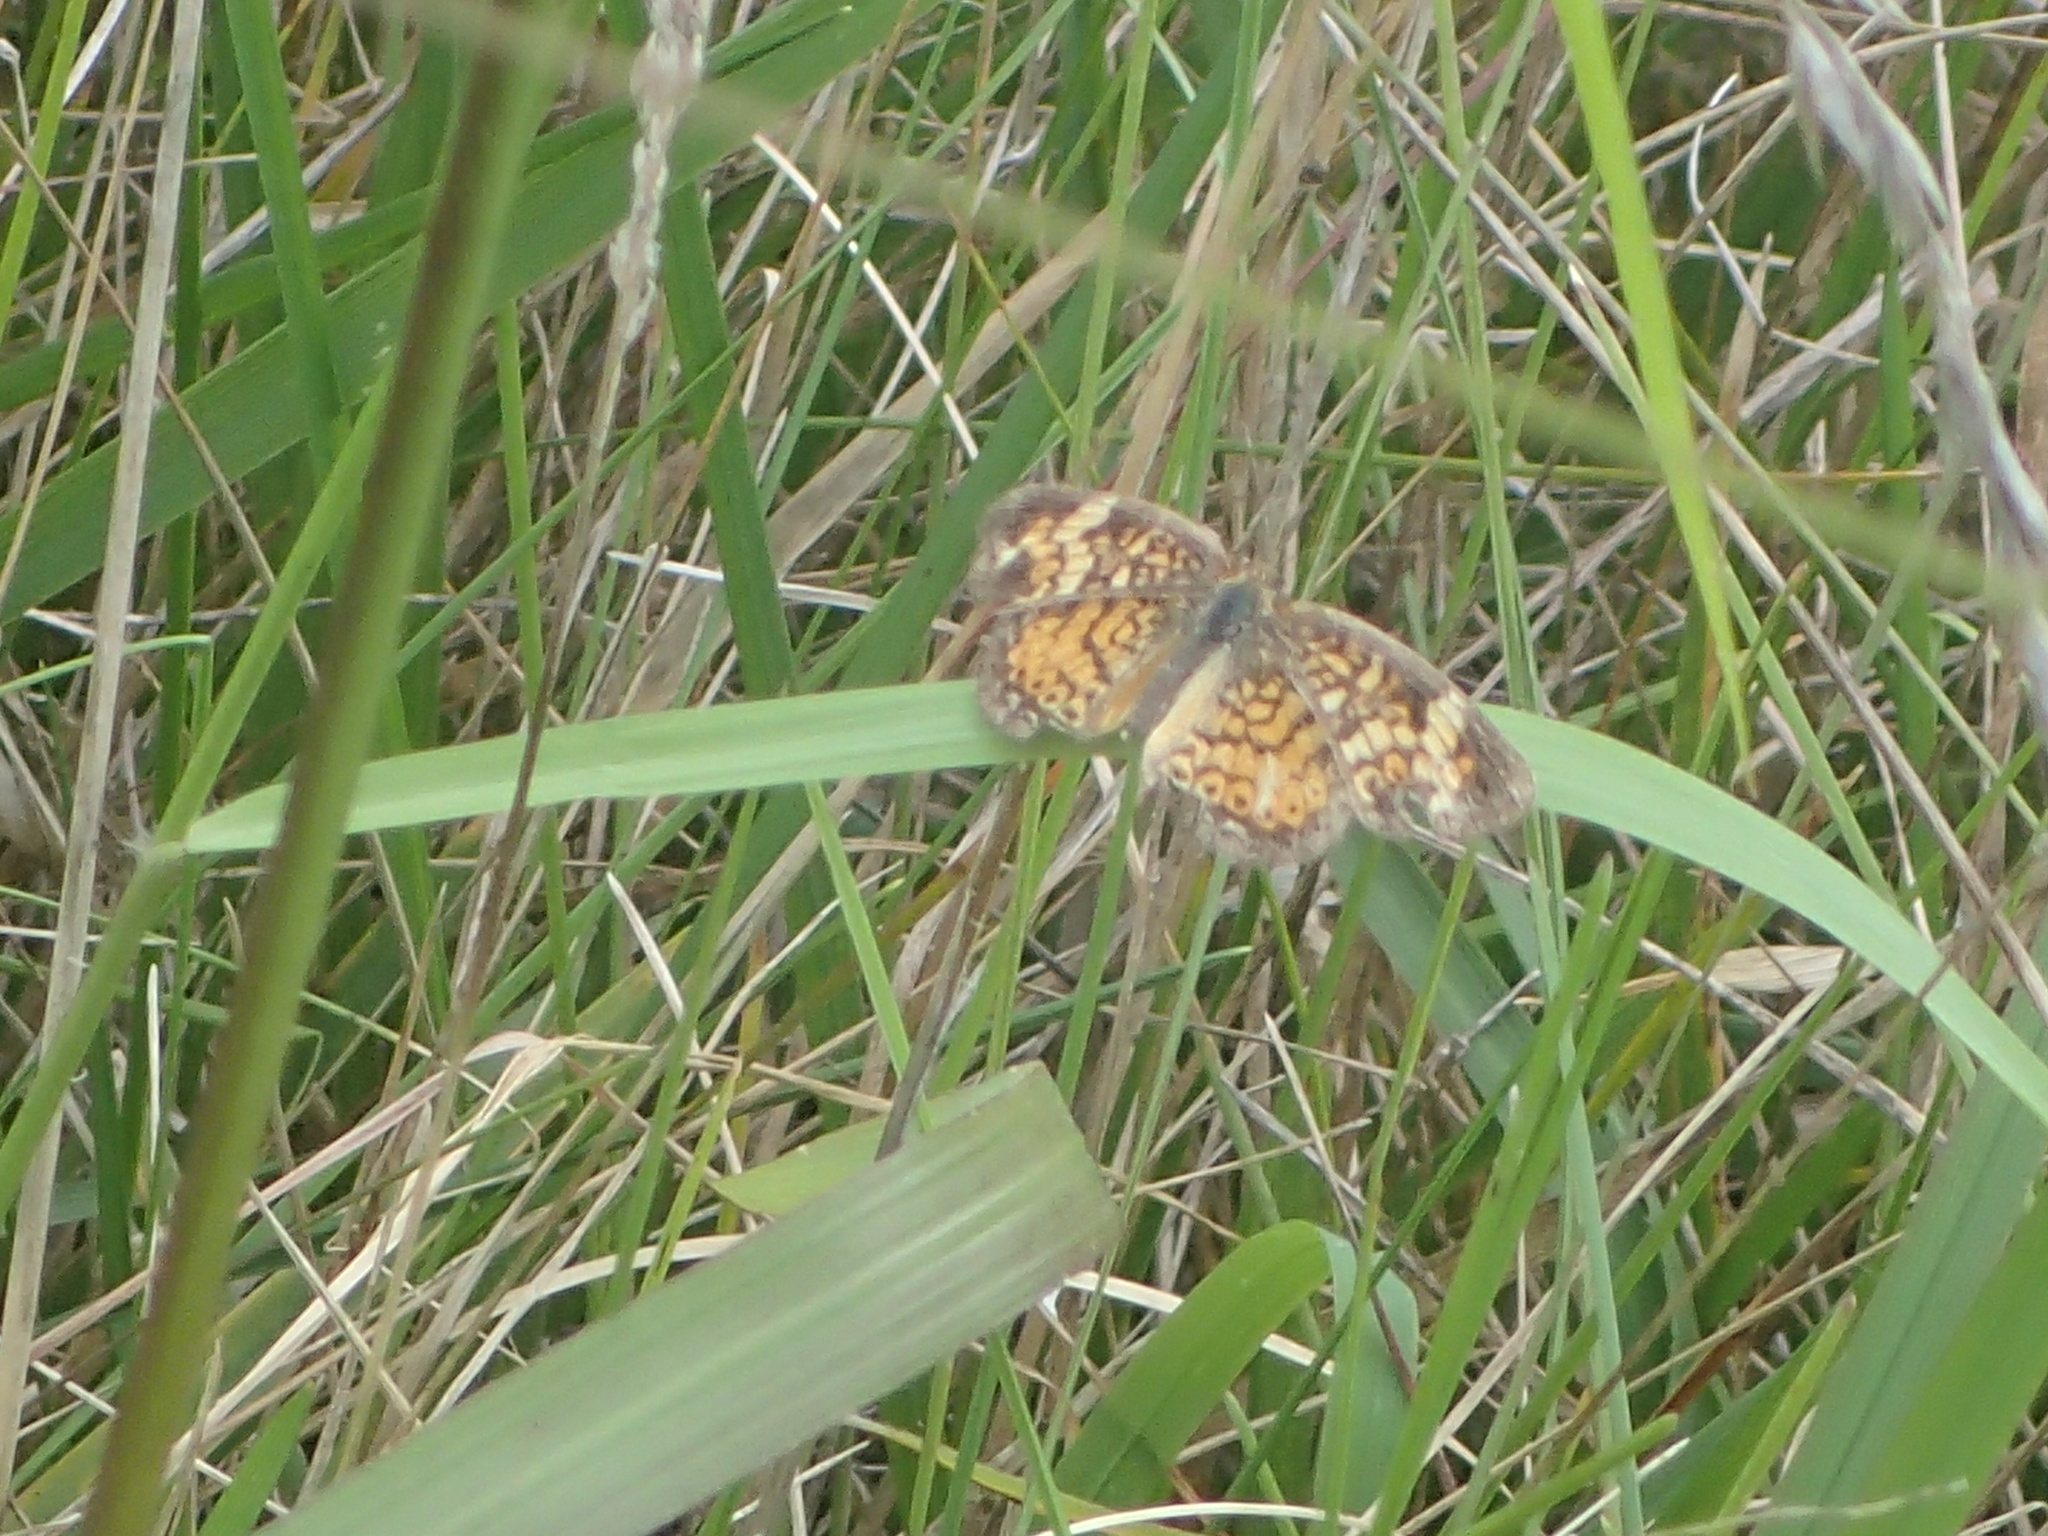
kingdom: Animalia
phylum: Arthropoda
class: Insecta
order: Lepidoptera
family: Nymphalidae
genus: Phyciodes
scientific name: Phyciodes tharos
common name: Pearl crescent
